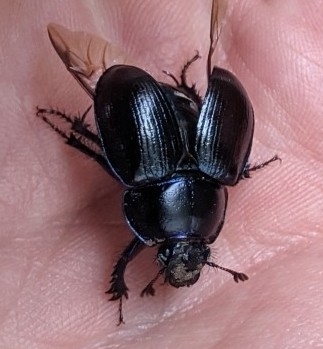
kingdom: Animalia
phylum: Arthropoda
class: Insecta
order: Coleoptera
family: Geotrupidae
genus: Anoplotrupes
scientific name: Anoplotrupes stercorosus
